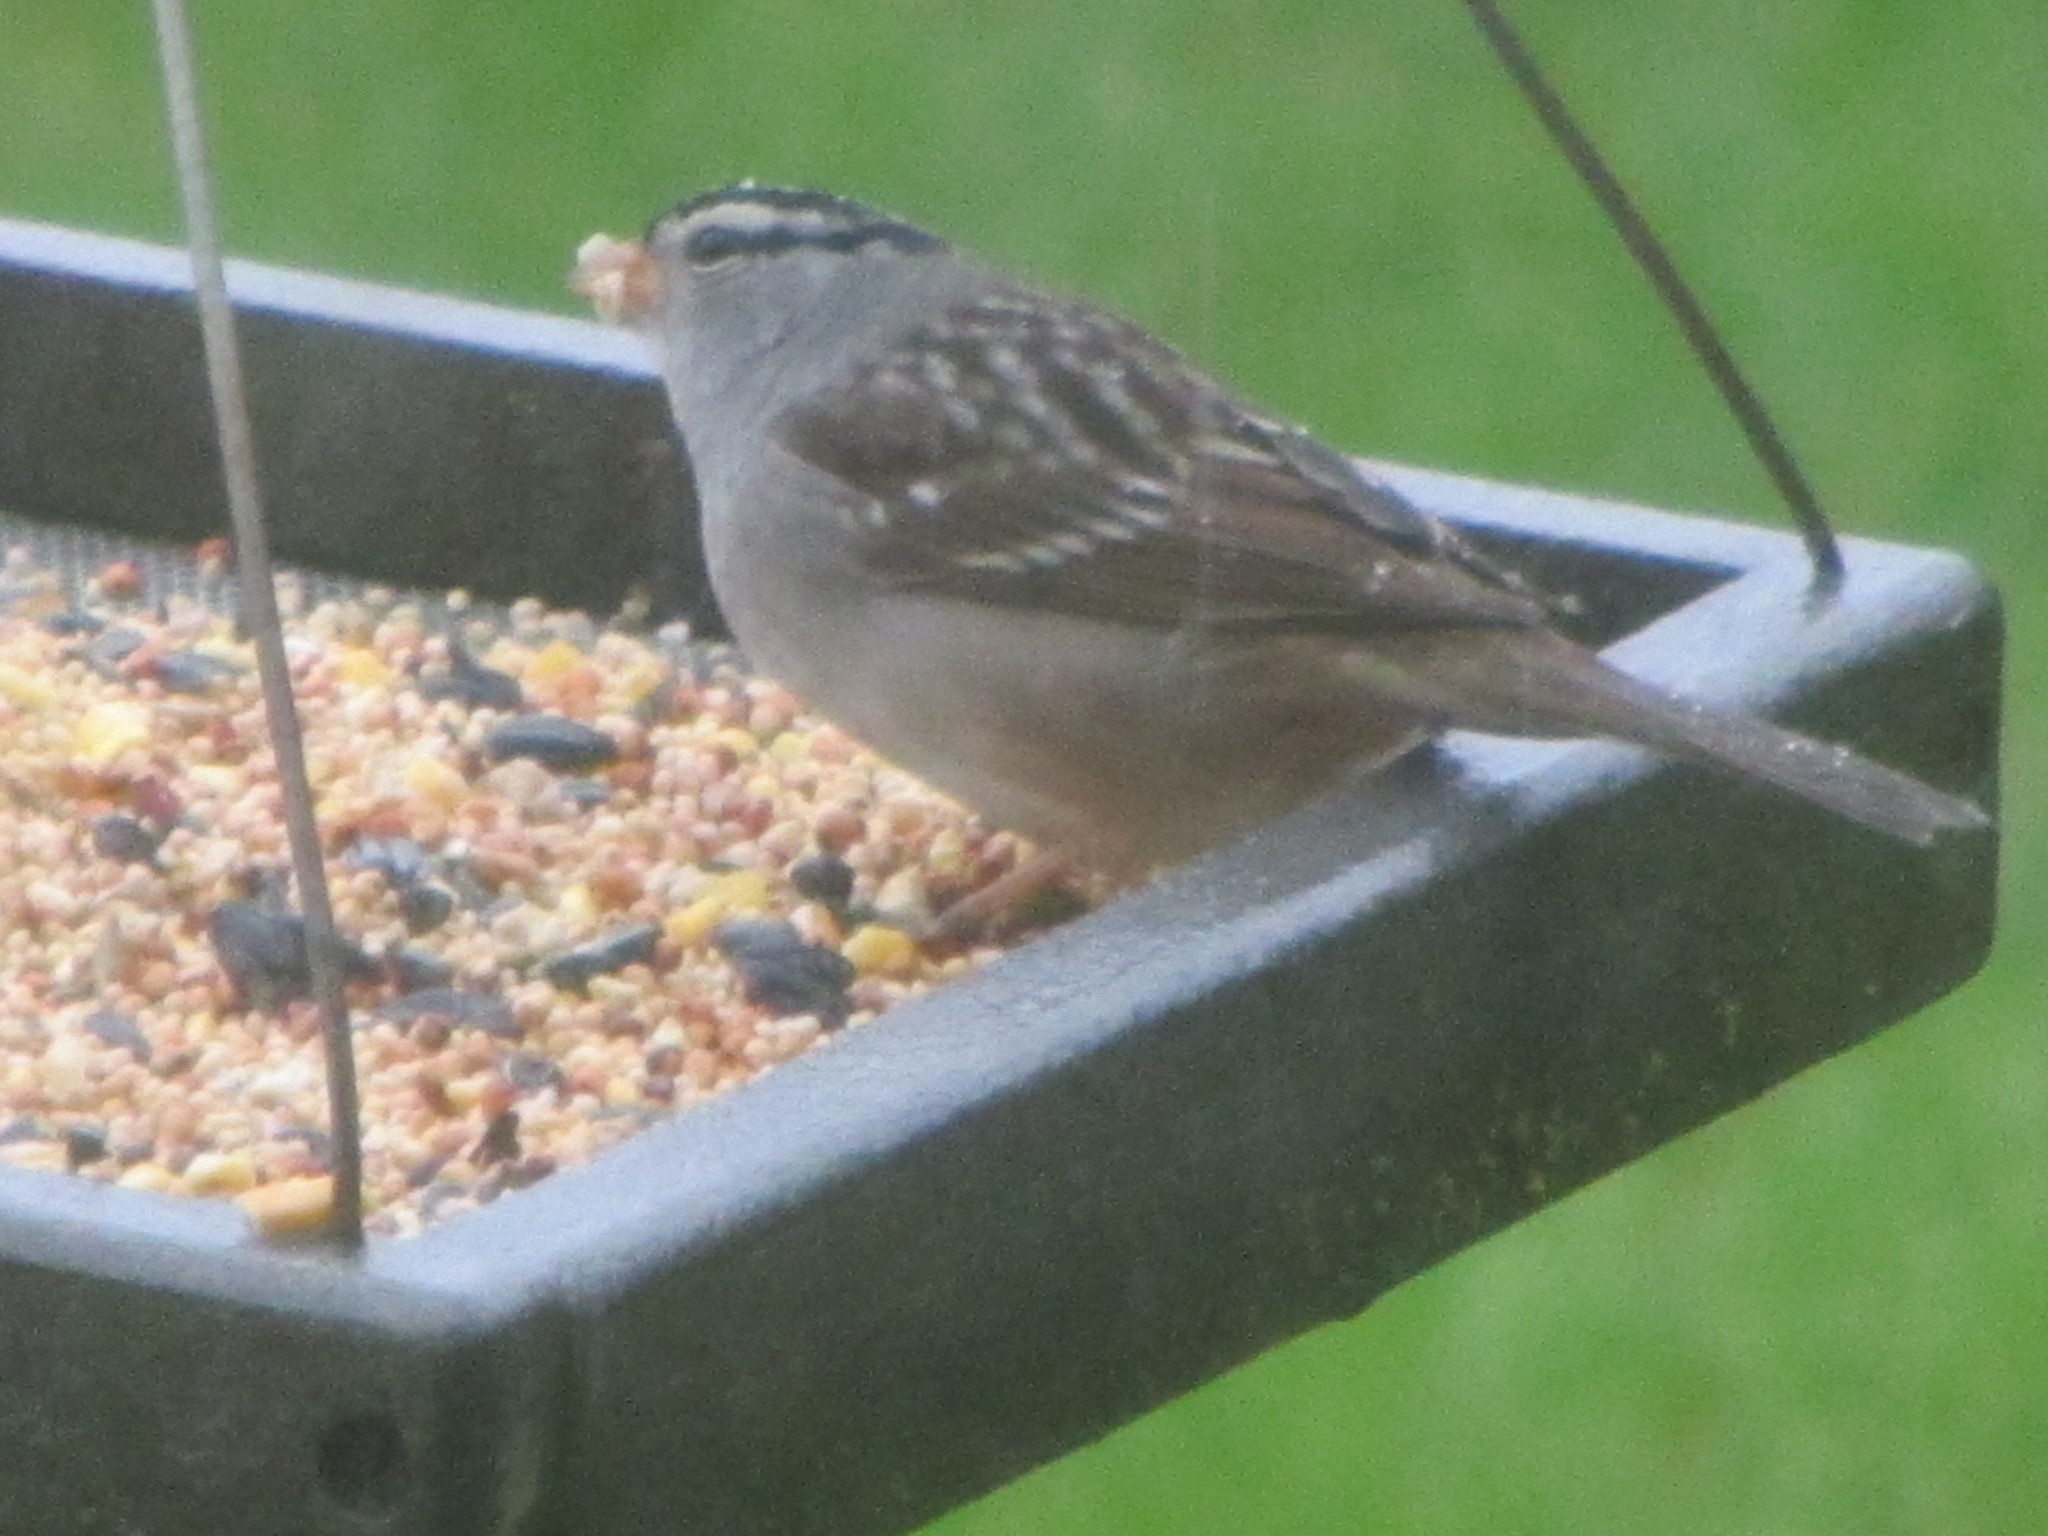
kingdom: Animalia
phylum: Chordata
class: Aves
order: Passeriformes
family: Passerellidae
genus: Zonotrichia
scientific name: Zonotrichia leucophrys
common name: White-crowned sparrow
